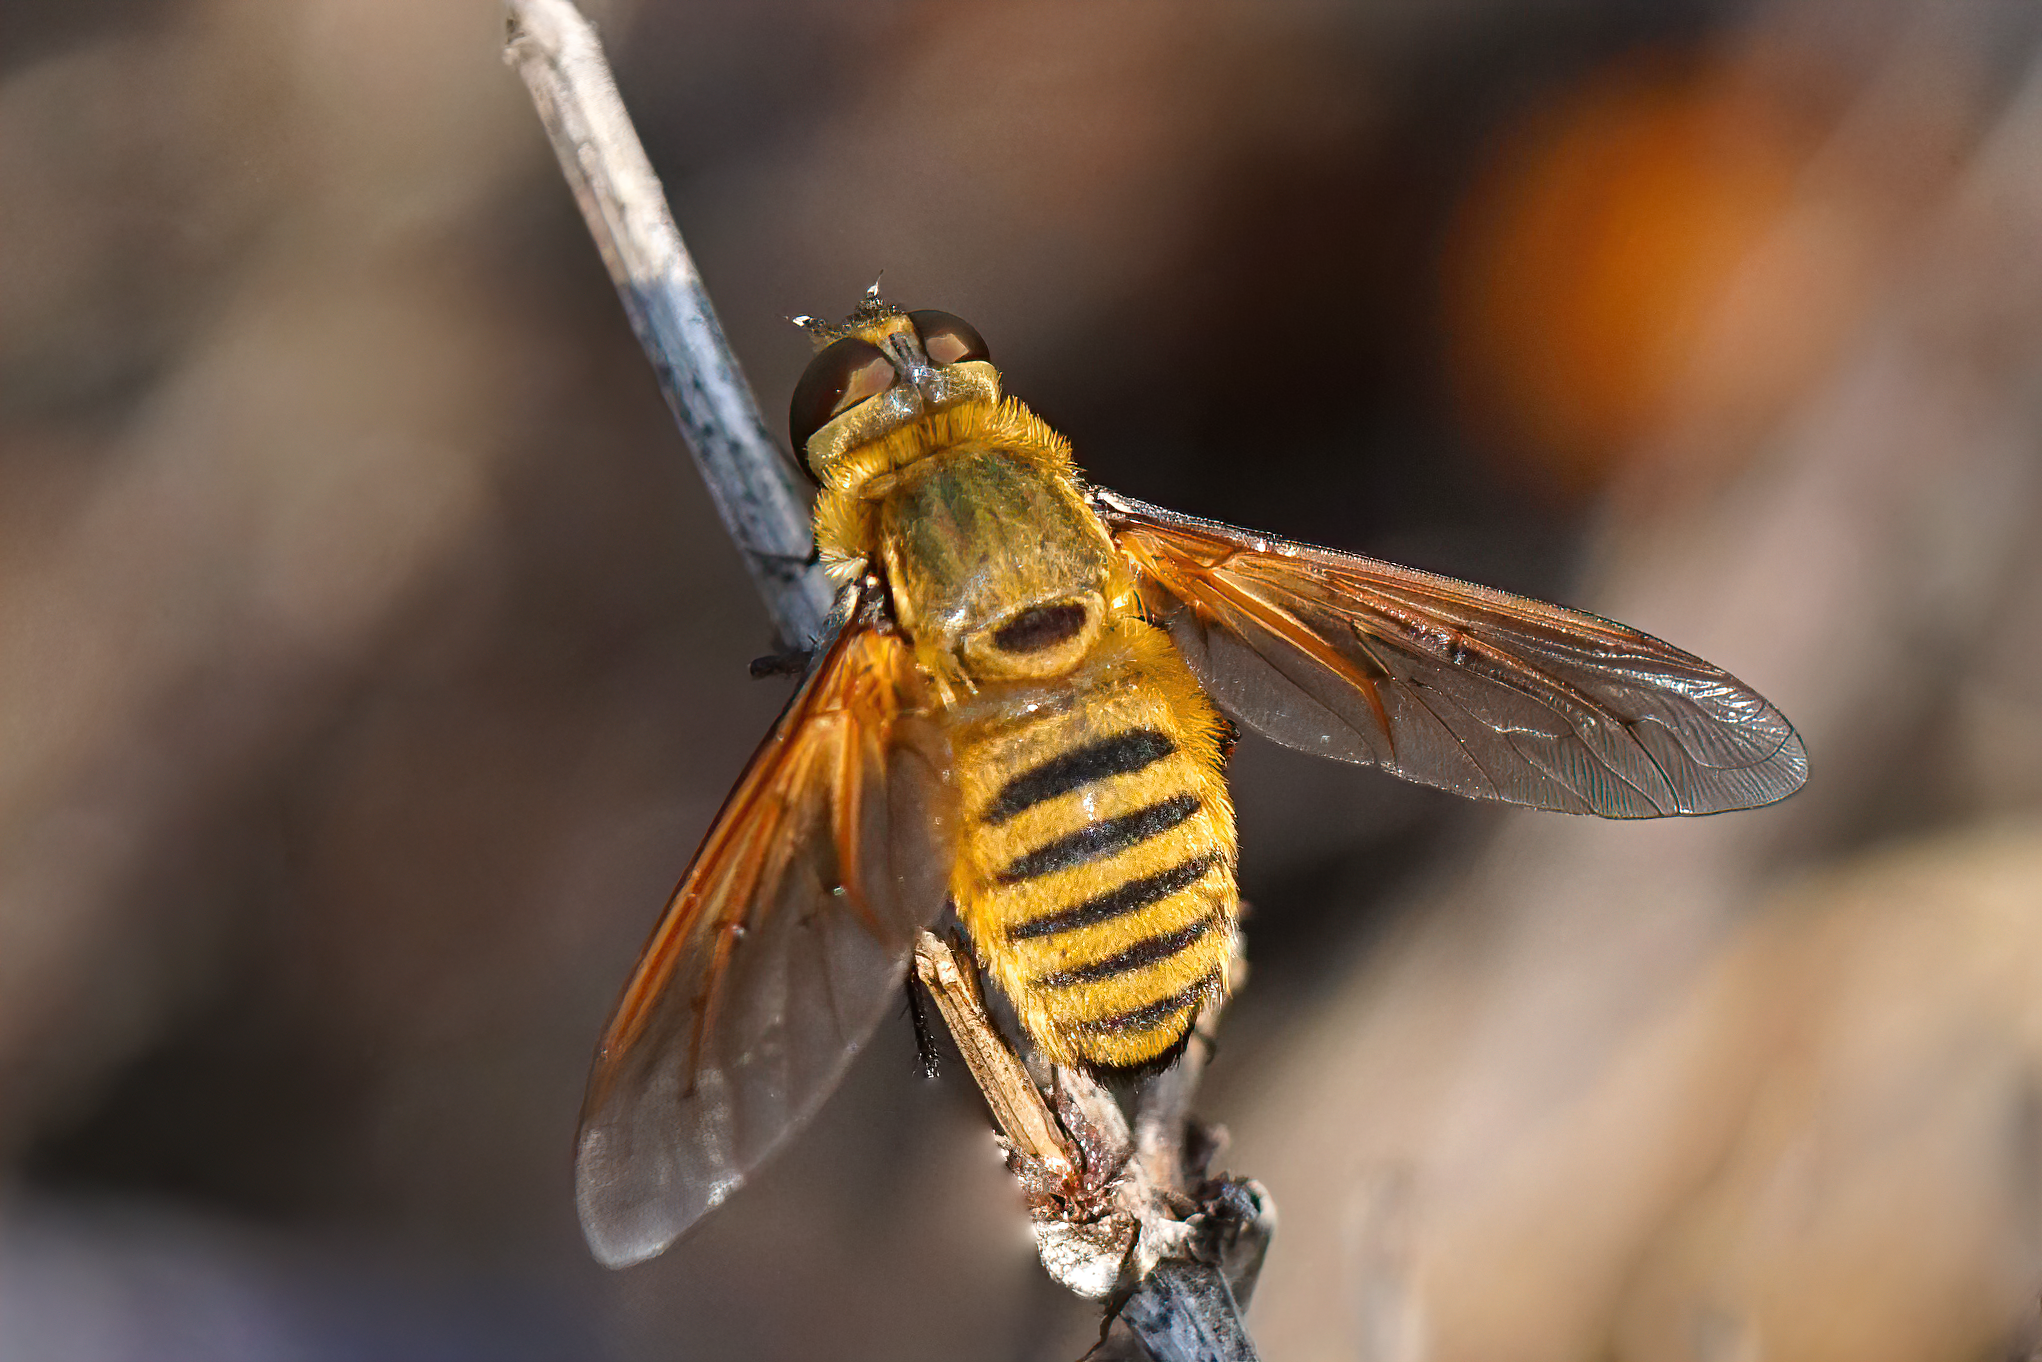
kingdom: Animalia
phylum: Arthropoda
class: Insecta
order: Diptera
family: Bombyliidae
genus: Poecilanthrax
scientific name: Poecilanthrax lucifer
